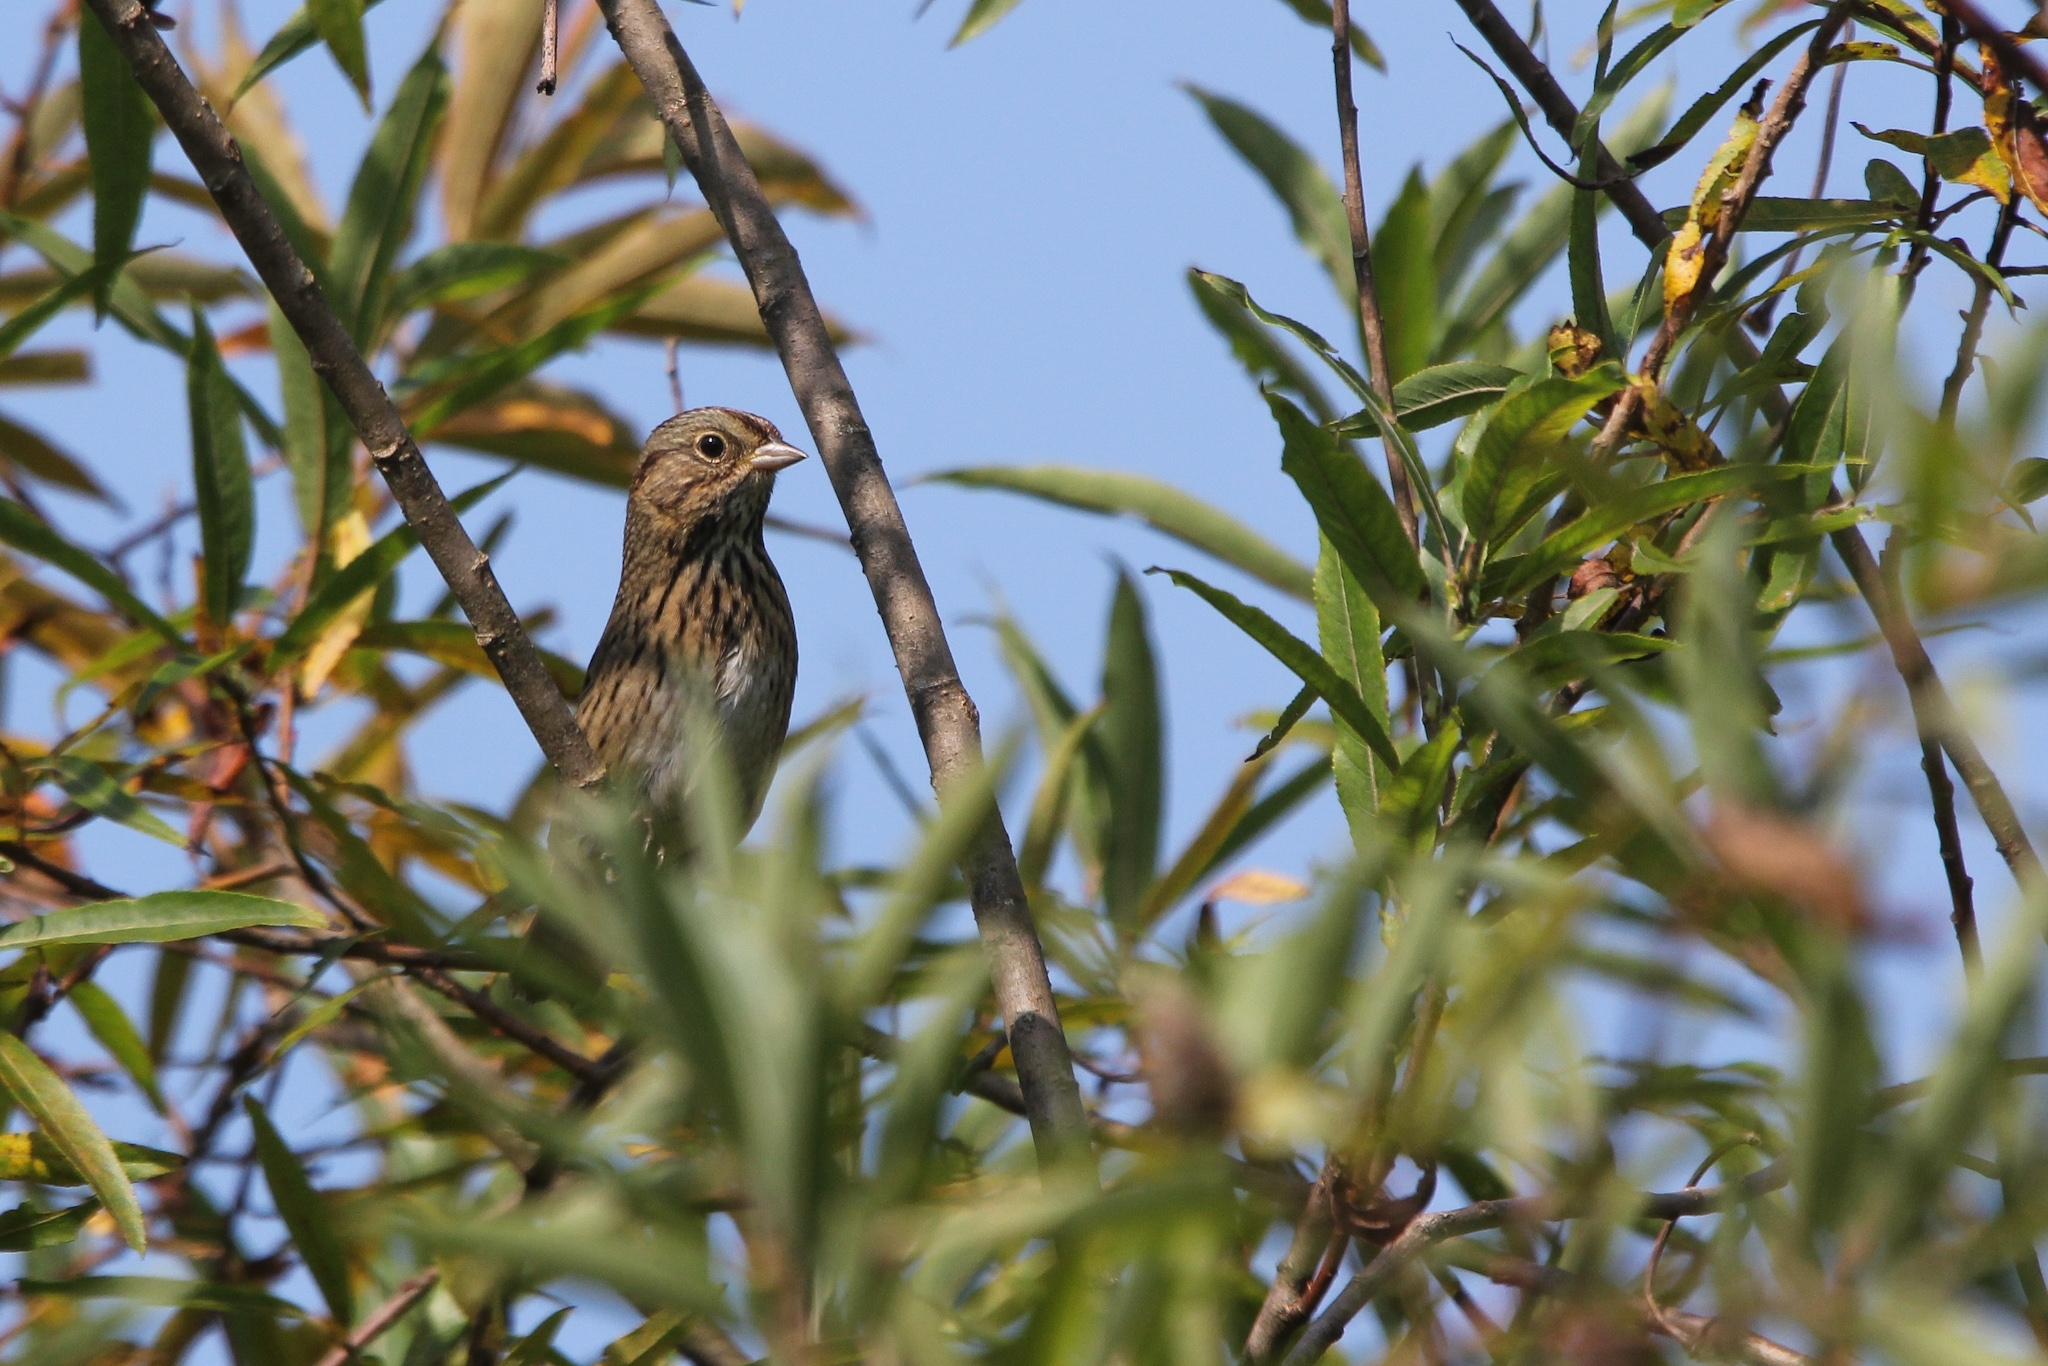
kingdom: Animalia
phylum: Chordata
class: Aves
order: Passeriformes
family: Passerellidae
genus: Melospiza
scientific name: Melospiza lincolnii
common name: Lincoln's sparrow
